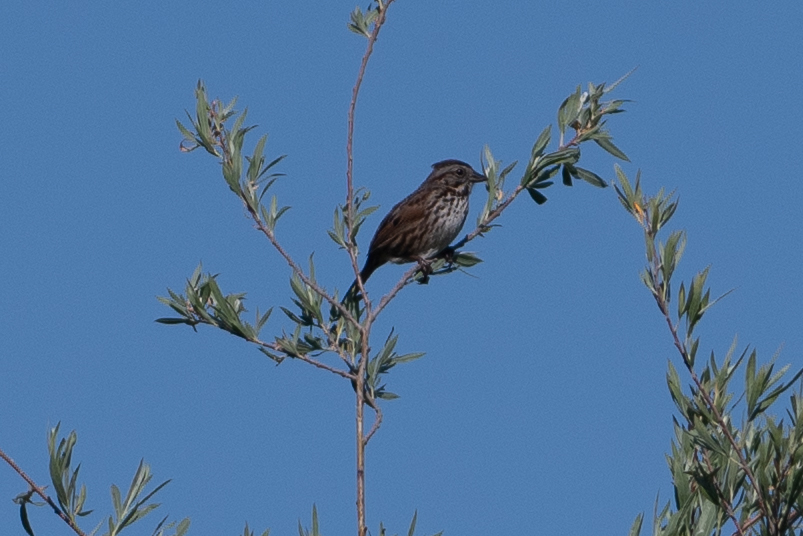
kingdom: Animalia
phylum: Chordata
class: Aves
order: Passeriformes
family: Passerellidae
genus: Melospiza
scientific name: Melospiza melodia
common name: Song sparrow
